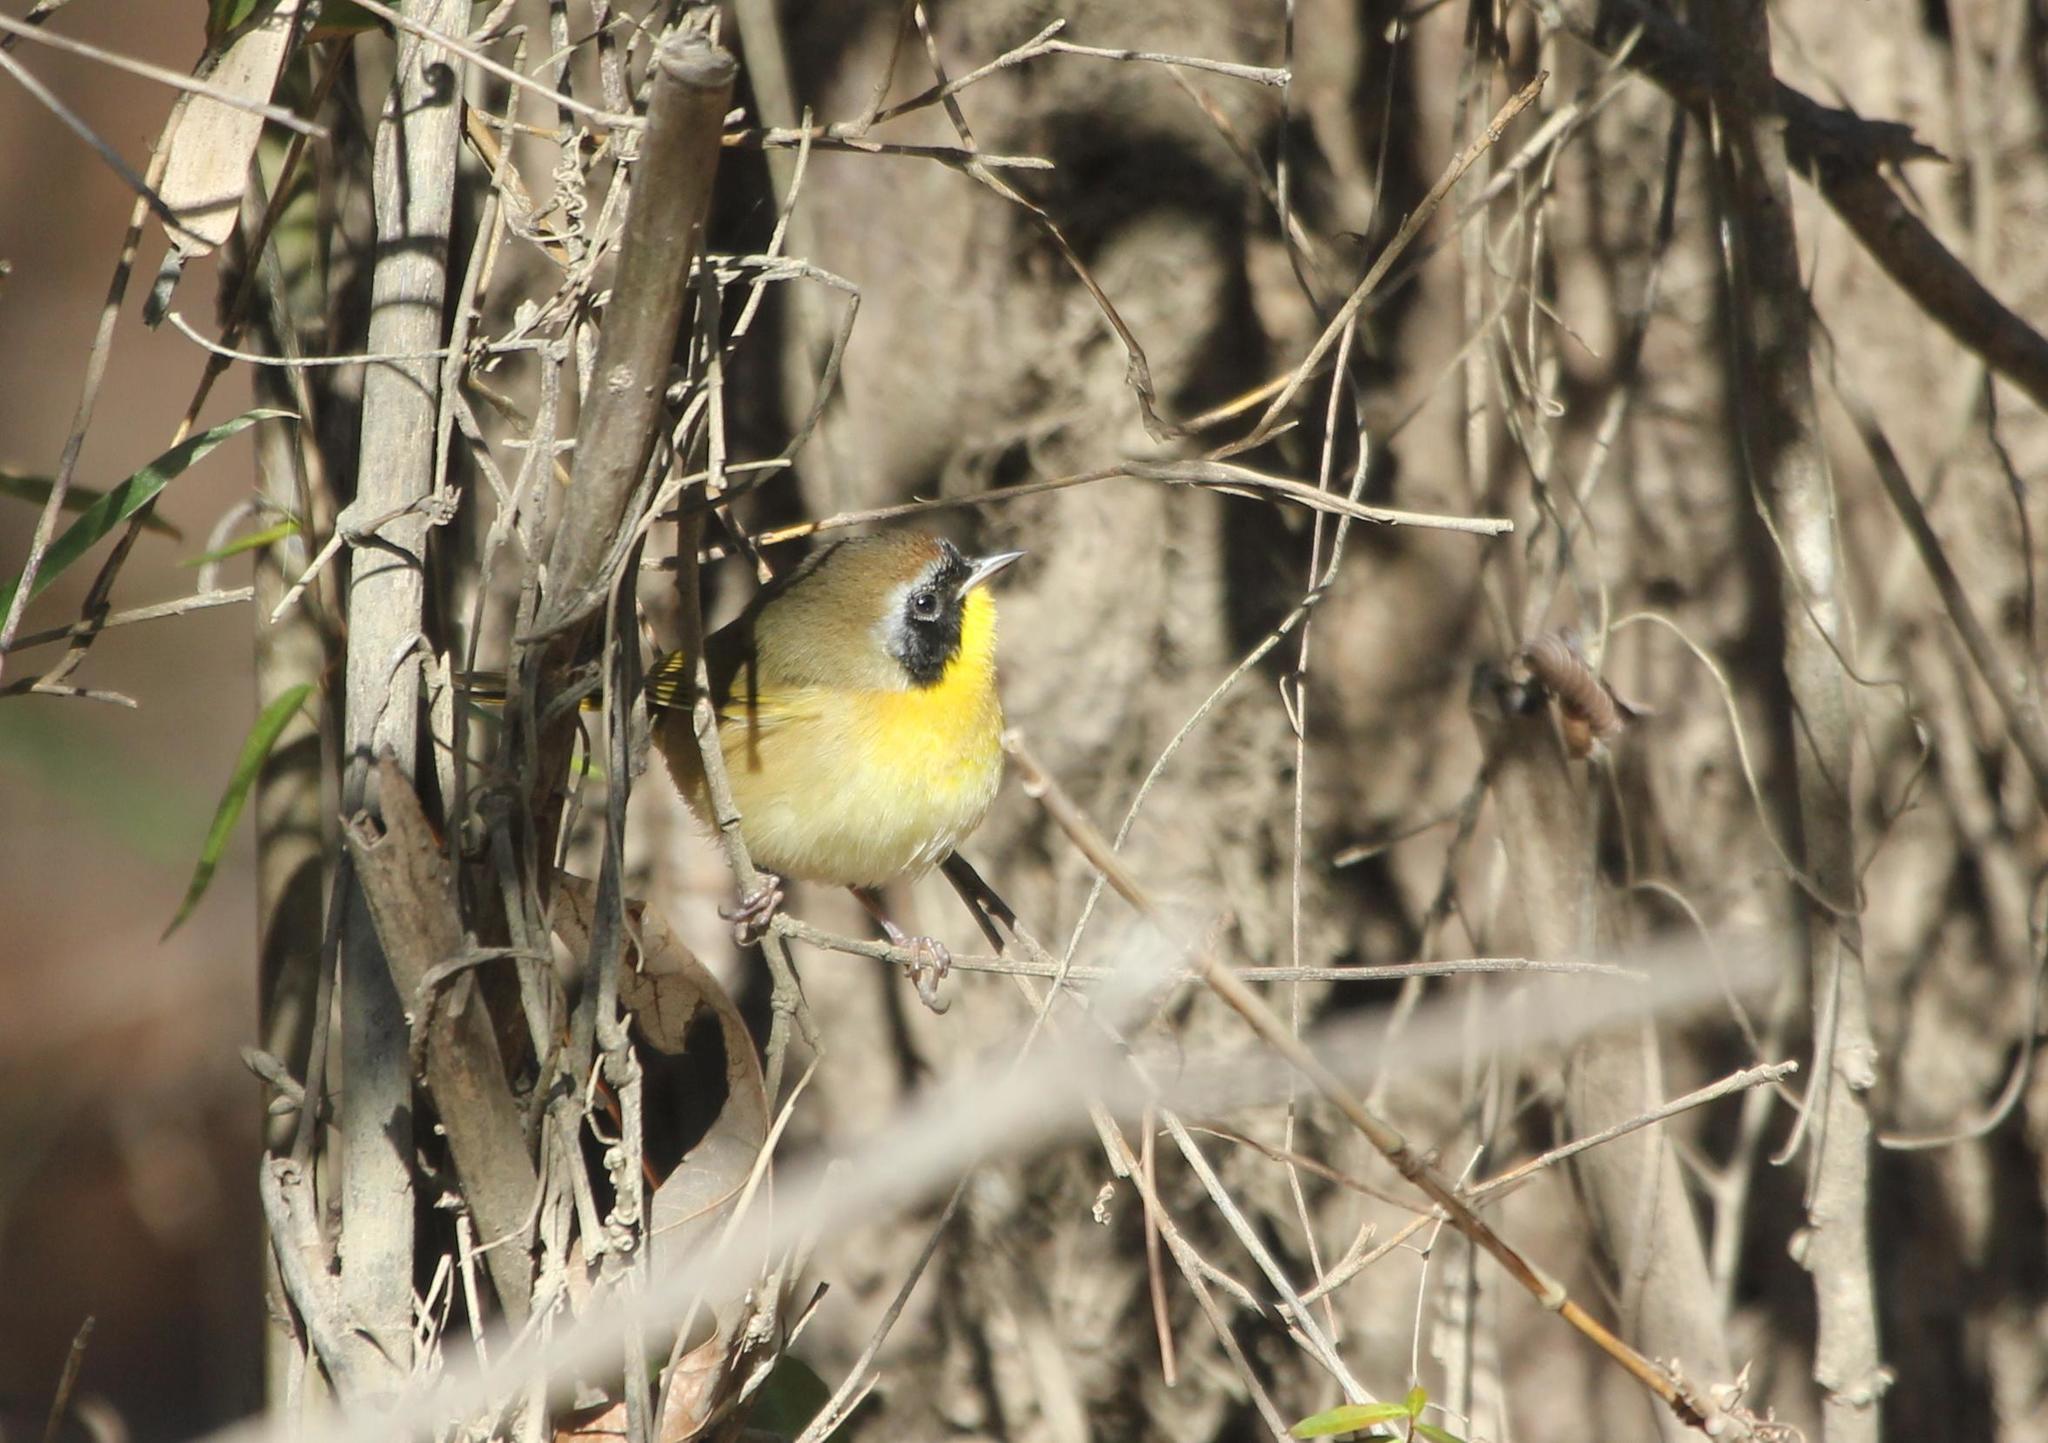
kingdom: Animalia
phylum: Chordata
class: Aves
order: Passeriformes
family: Parulidae
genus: Geothlypis
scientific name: Geothlypis trichas
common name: Common yellowthroat
